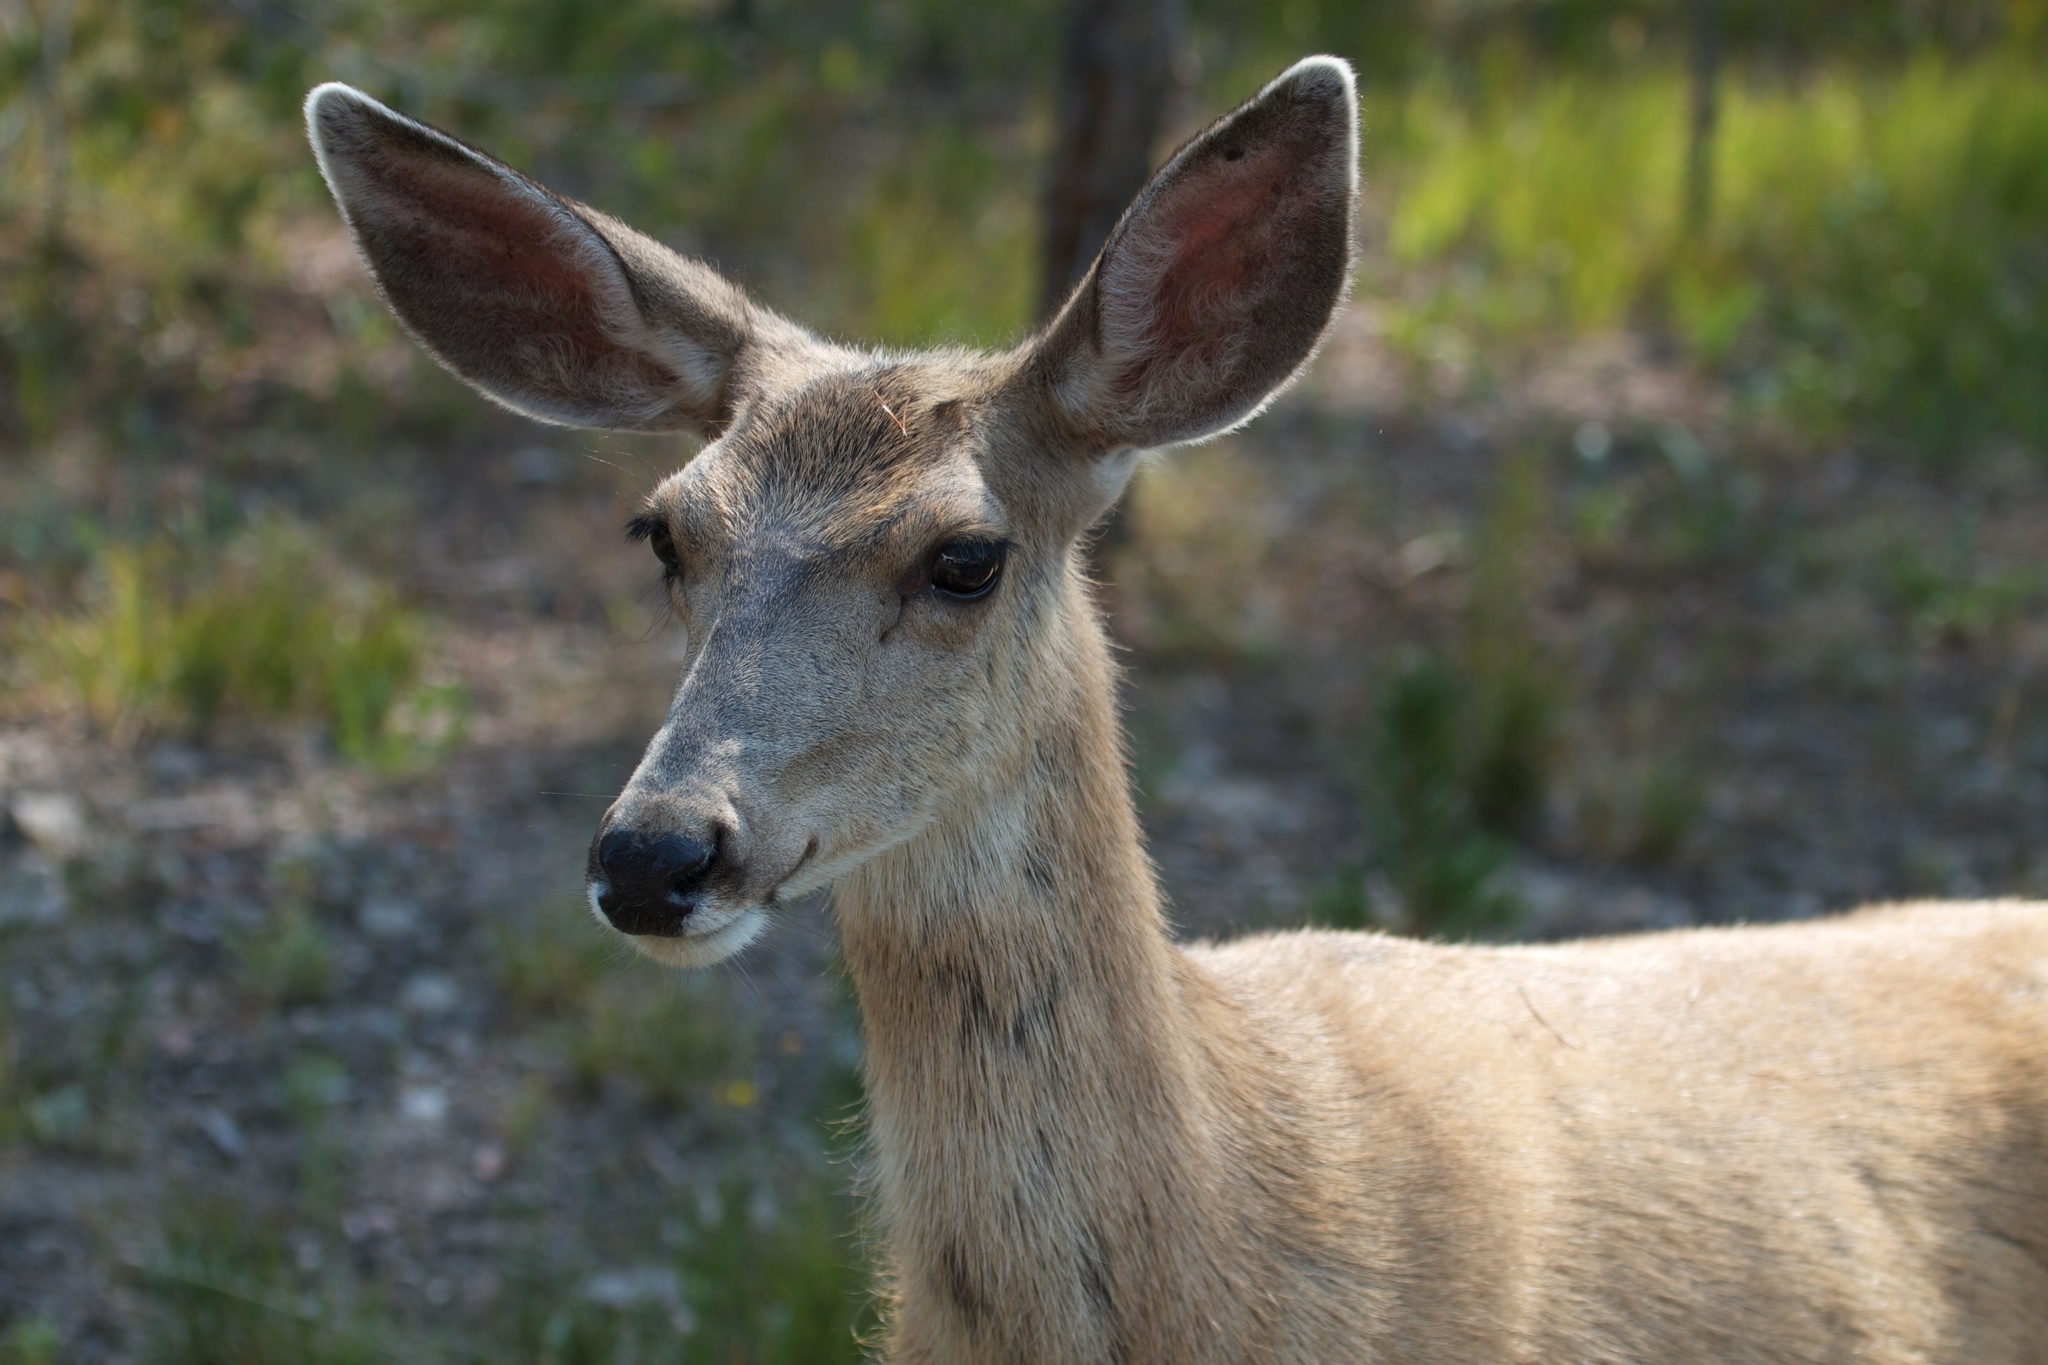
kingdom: Animalia
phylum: Chordata
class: Mammalia
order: Artiodactyla
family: Cervidae
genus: Odocoileus
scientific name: Odocoileus hemionus
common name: Mule deer
